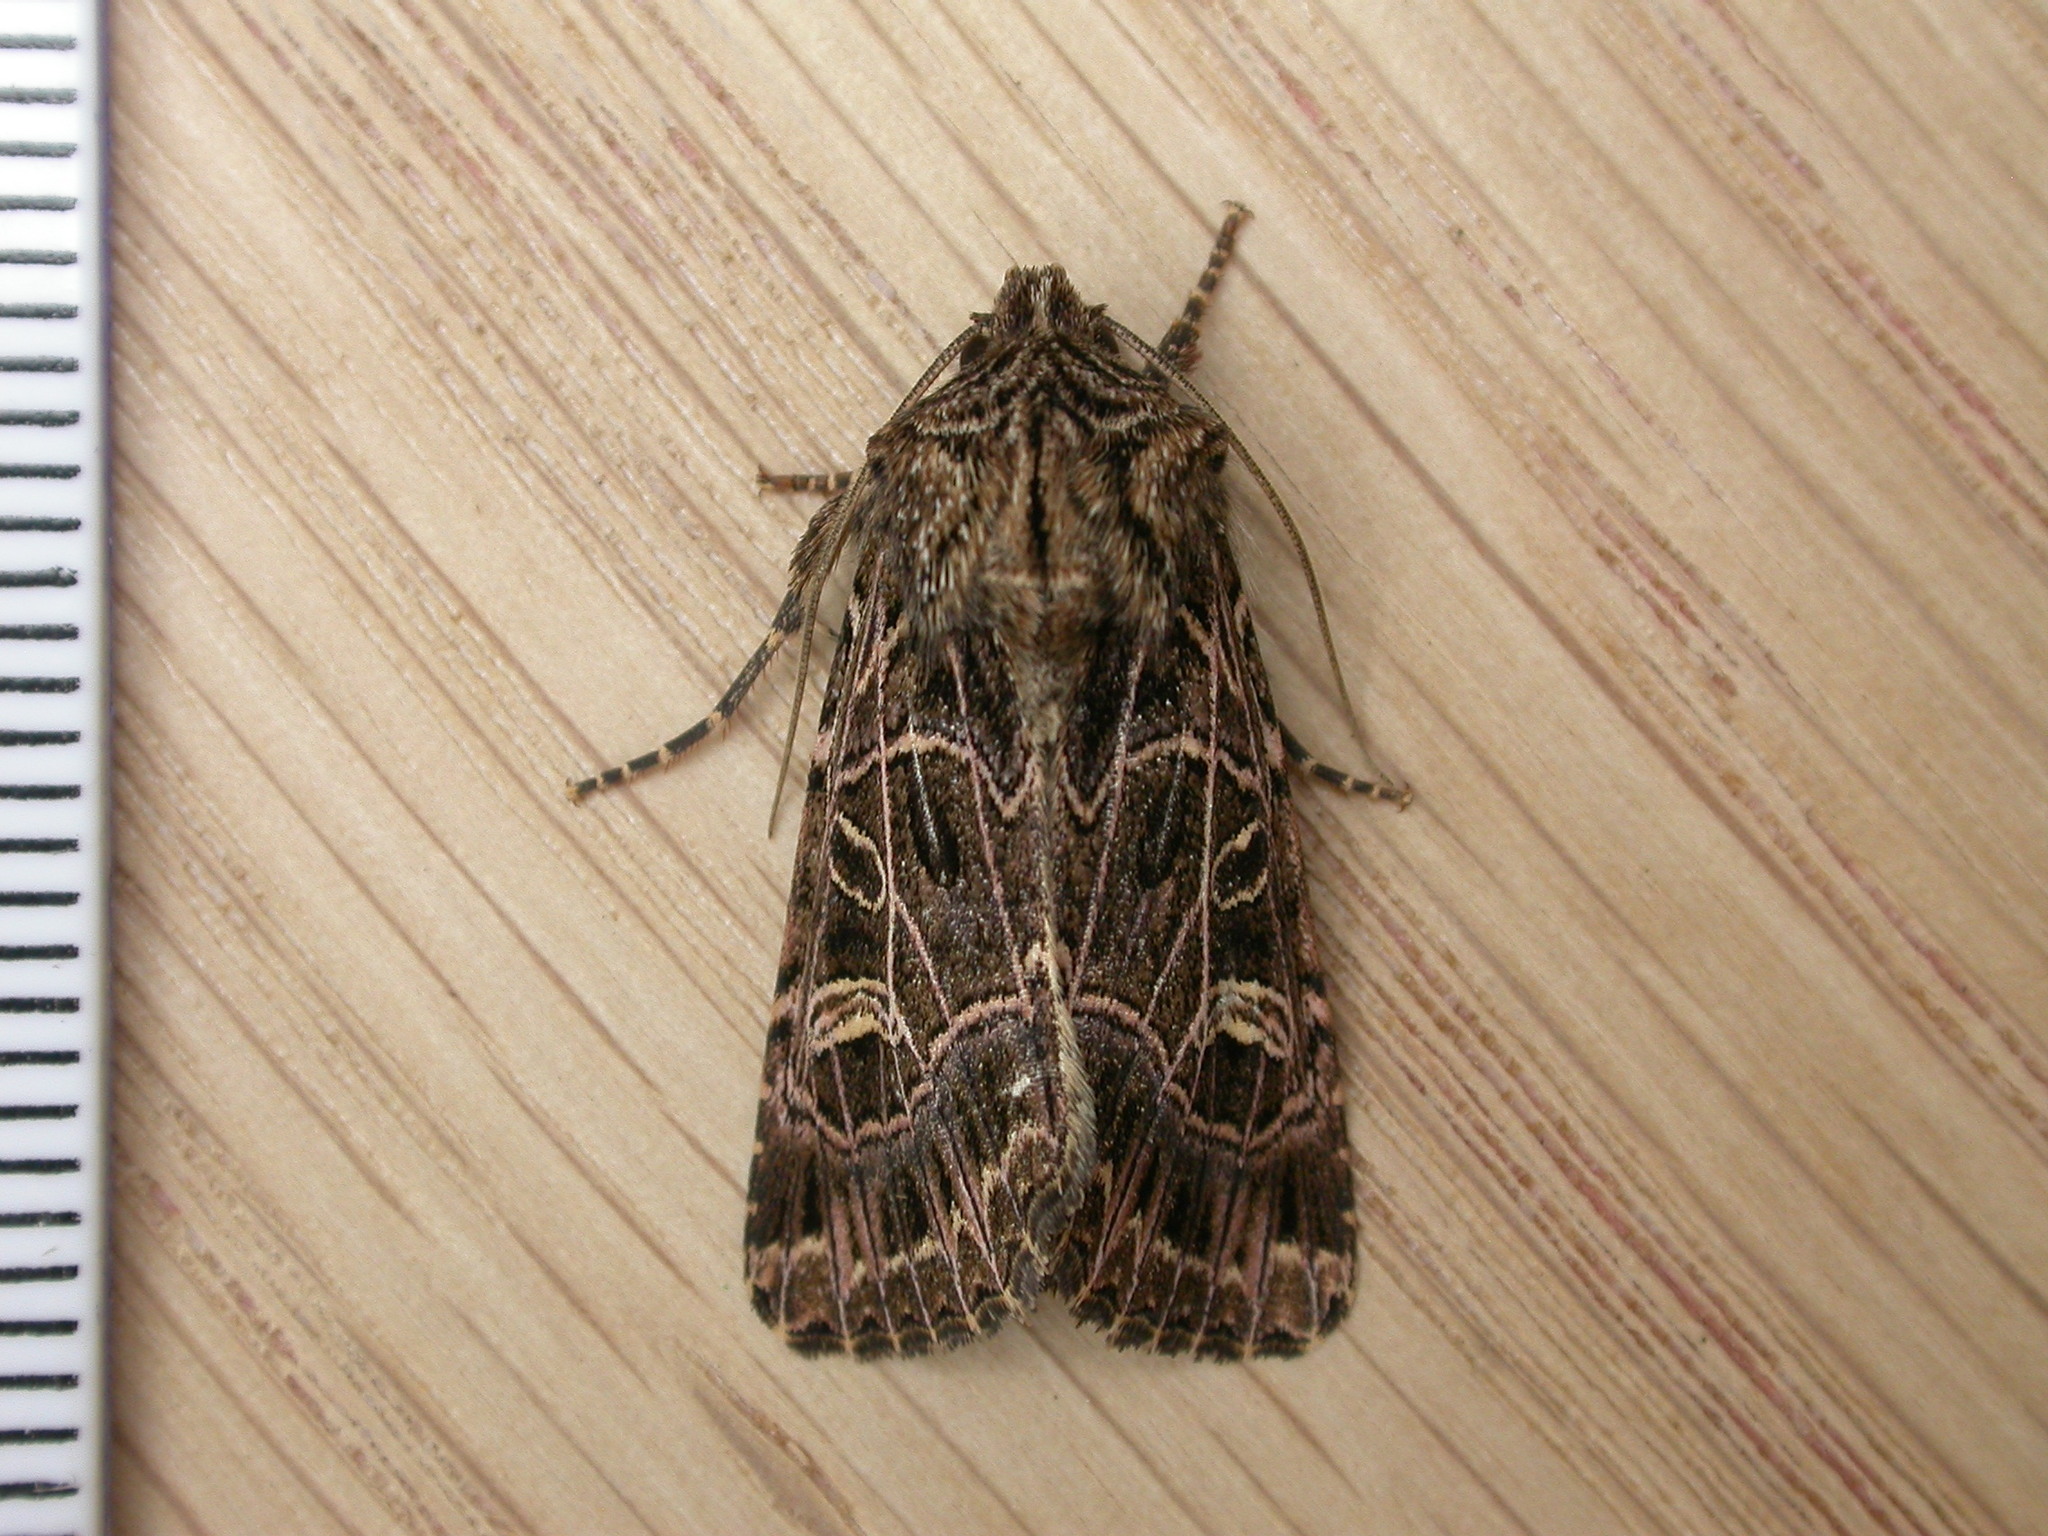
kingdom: Animalia
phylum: Arthropoda
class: Insecta
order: Lepidoptera
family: Noctuidae
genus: Sideridis
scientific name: Sideridis reticulata
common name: Bordered gothic
